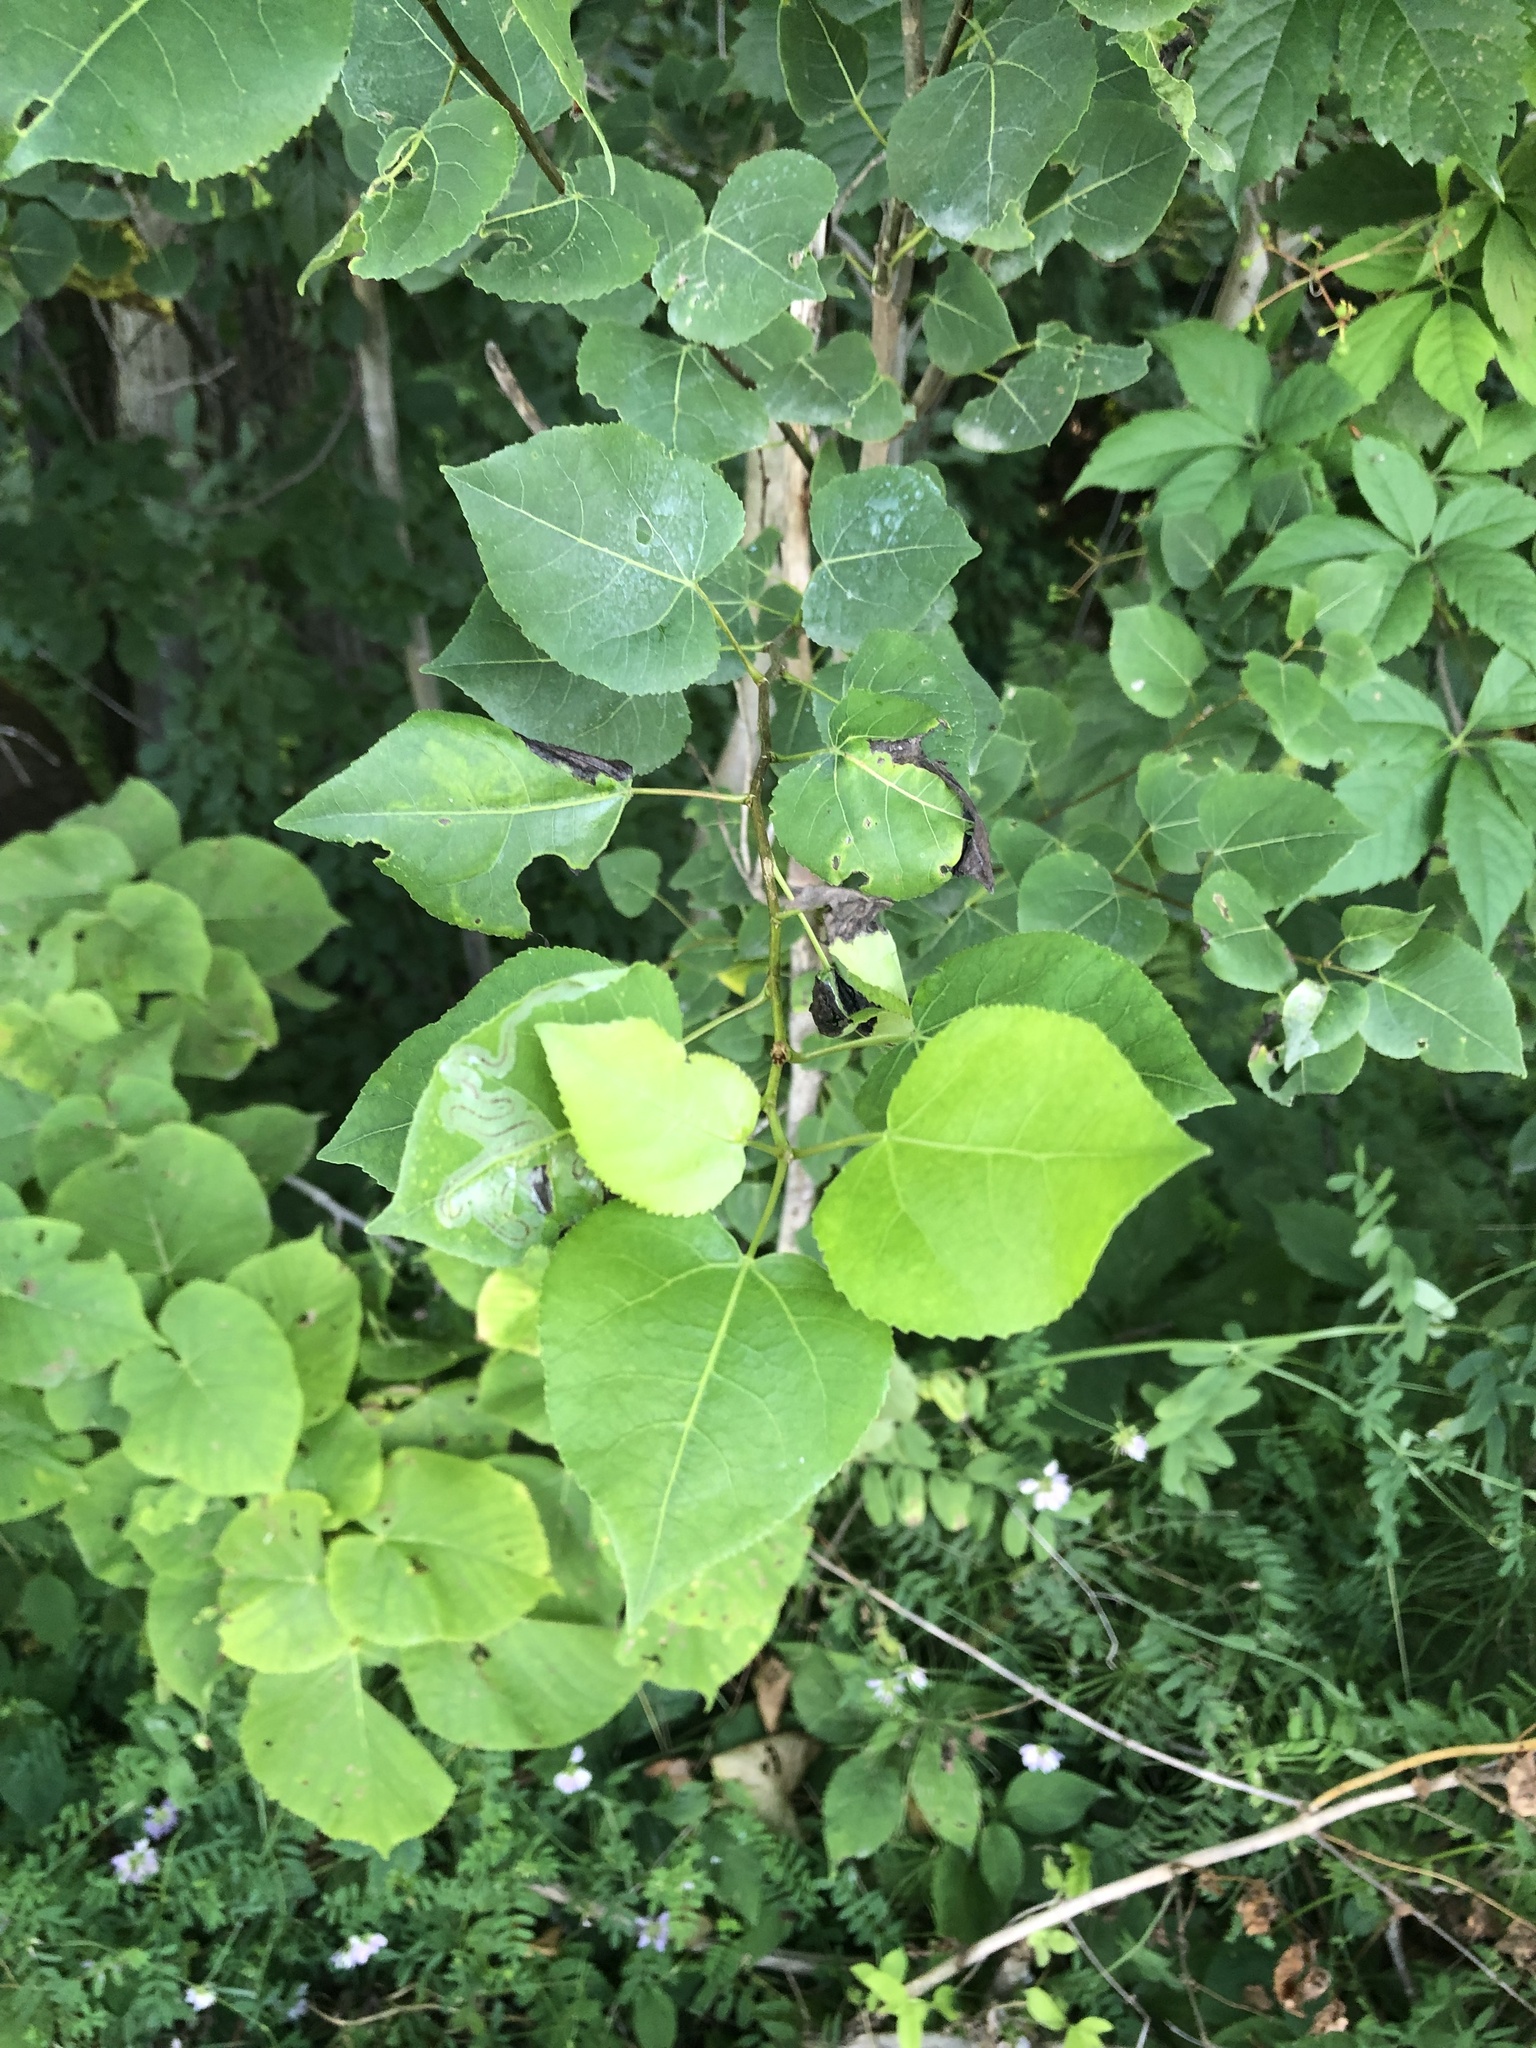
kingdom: Plantae
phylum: Tracheophyta
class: Magnoliopsida
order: Malpighiales
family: Salicaceae
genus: Populus
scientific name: Populus tremuloides
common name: Quaking aspen
